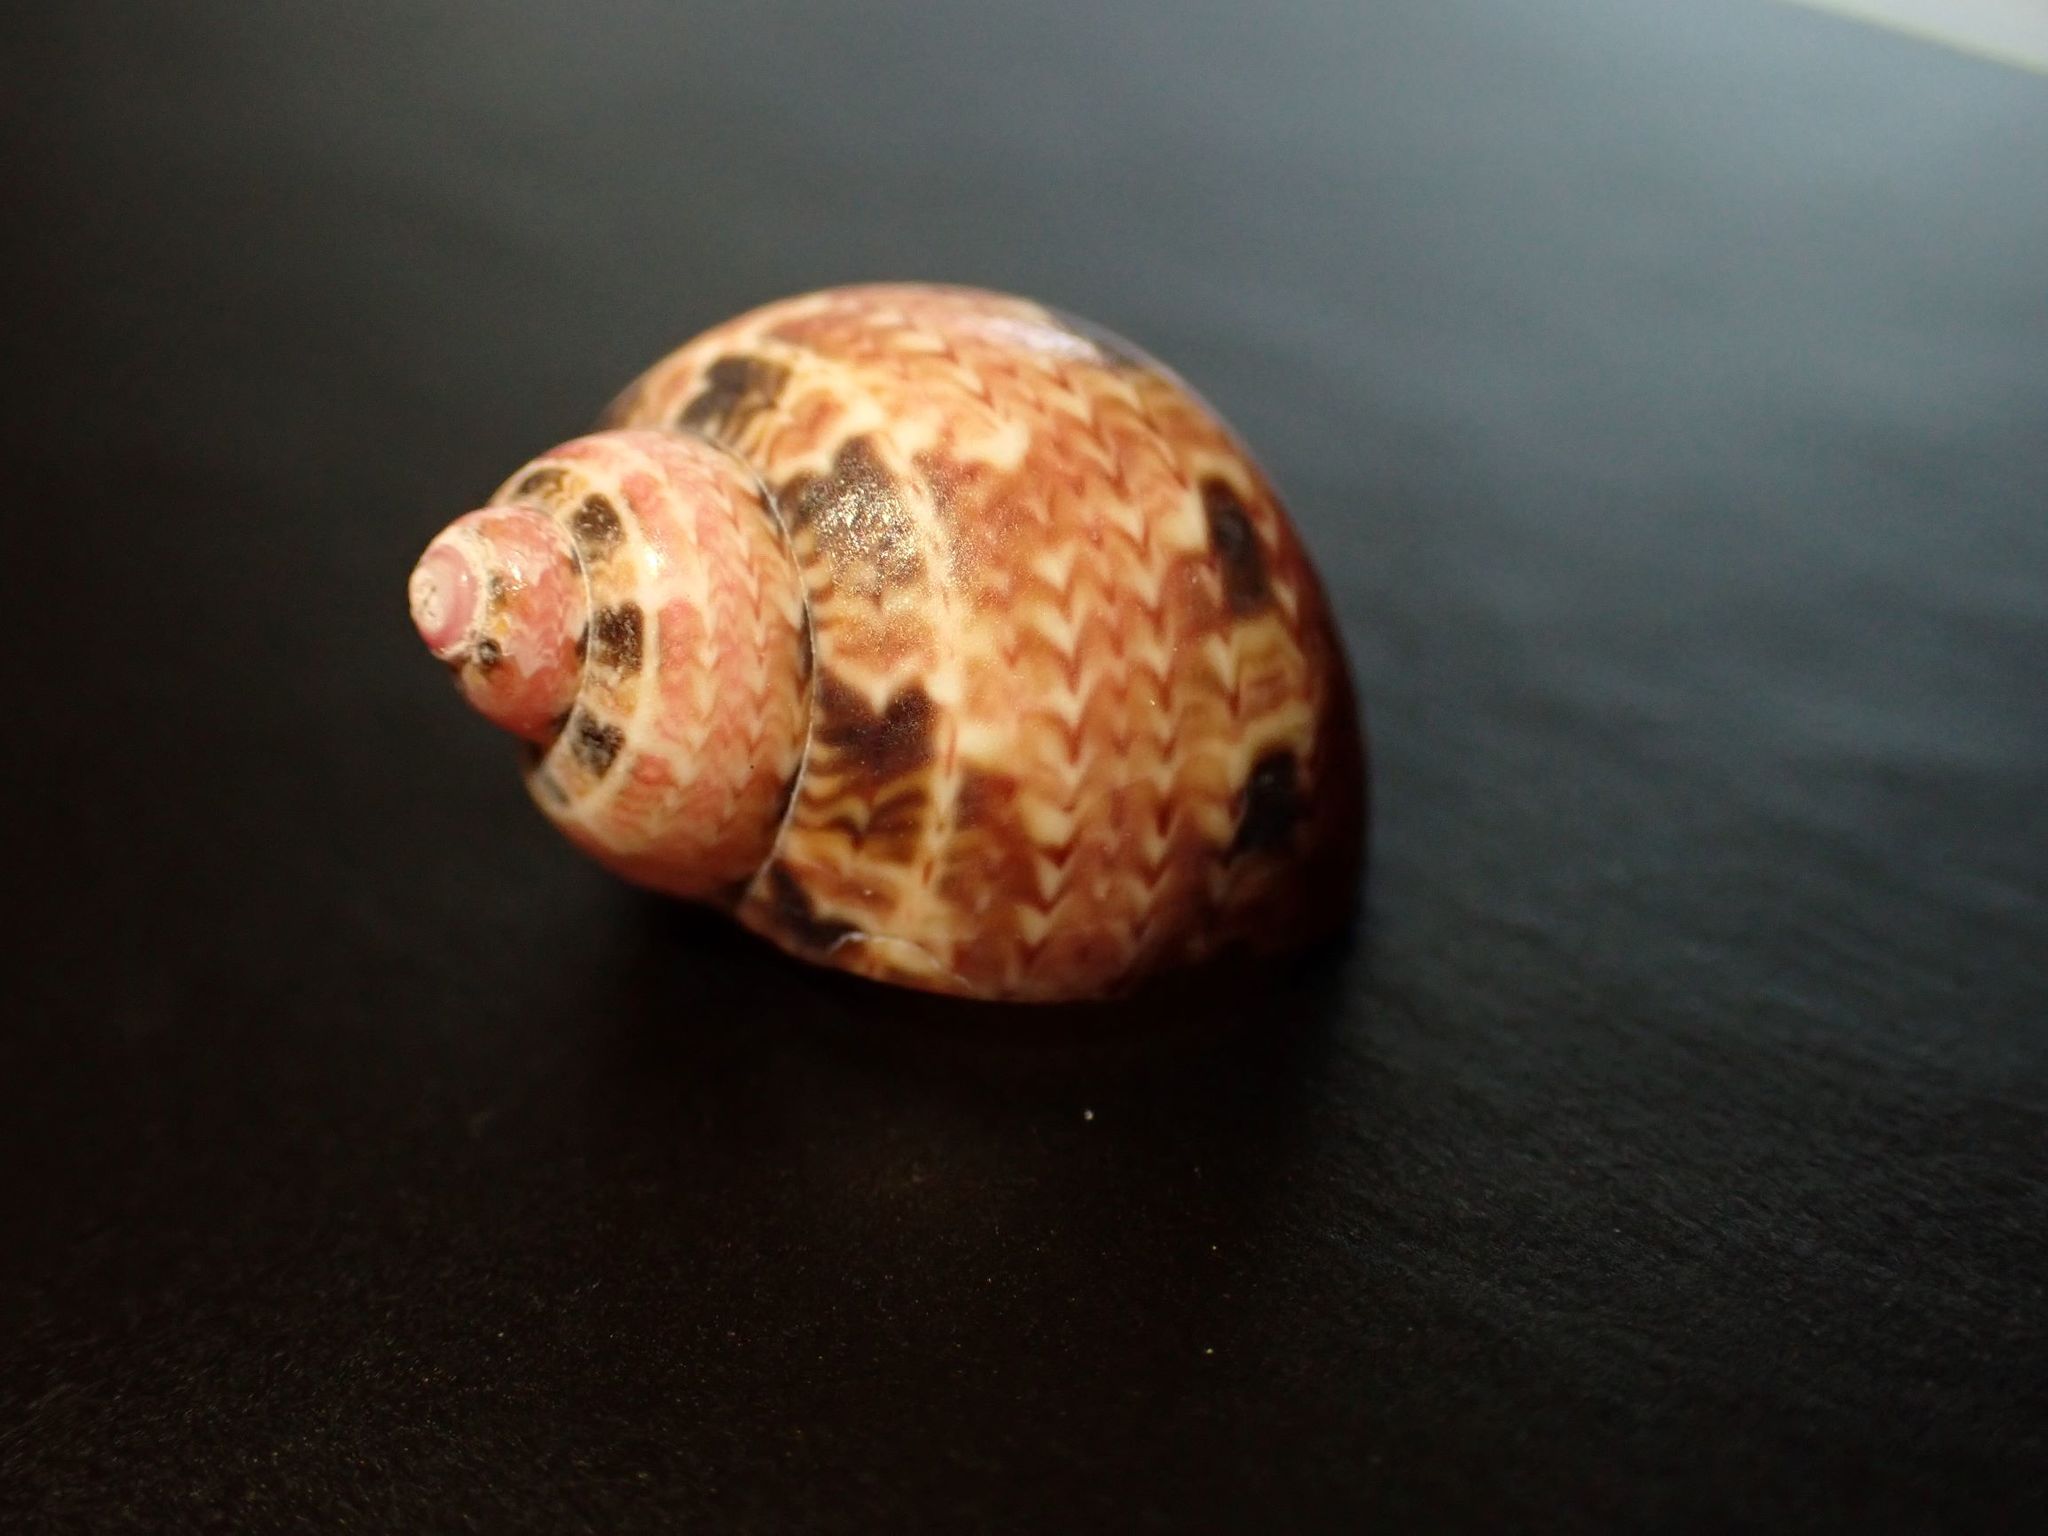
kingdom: Animalia
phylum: Mollusca
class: Gastropoda
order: Trochida
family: Phasianellidae
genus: Phasianella
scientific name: Phasianella ventricosa
